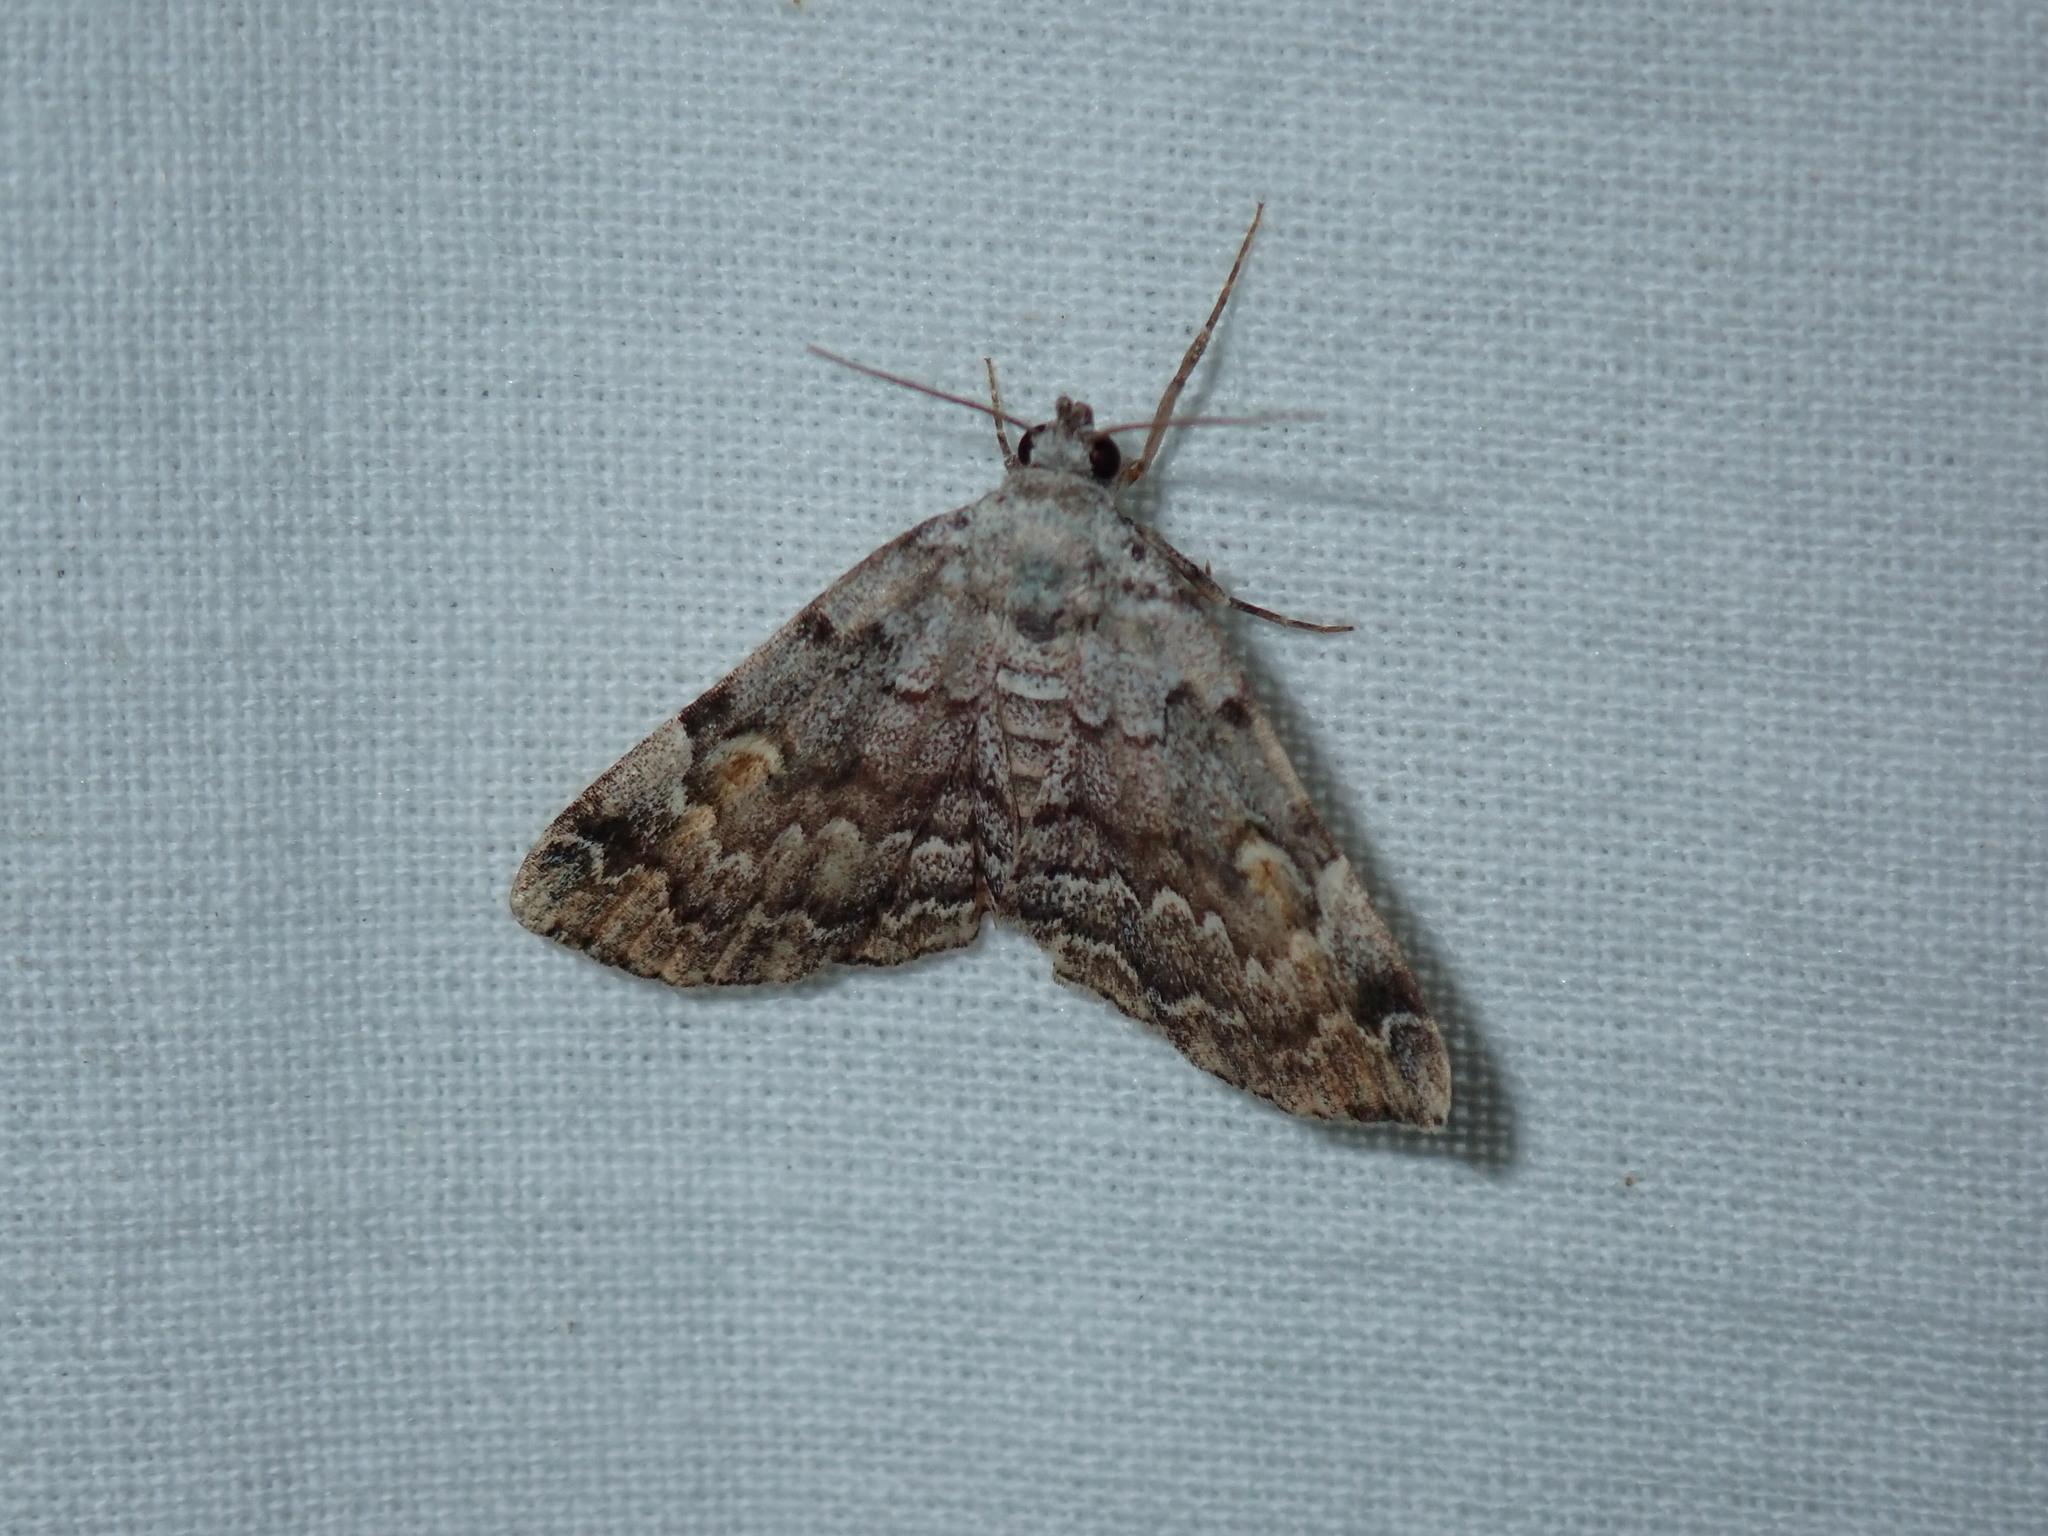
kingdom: Animalia
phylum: Arthropoda
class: Insecta
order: Lepidoptera
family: Erebidae
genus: Idia
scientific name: Idia americalis
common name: American idia moth
